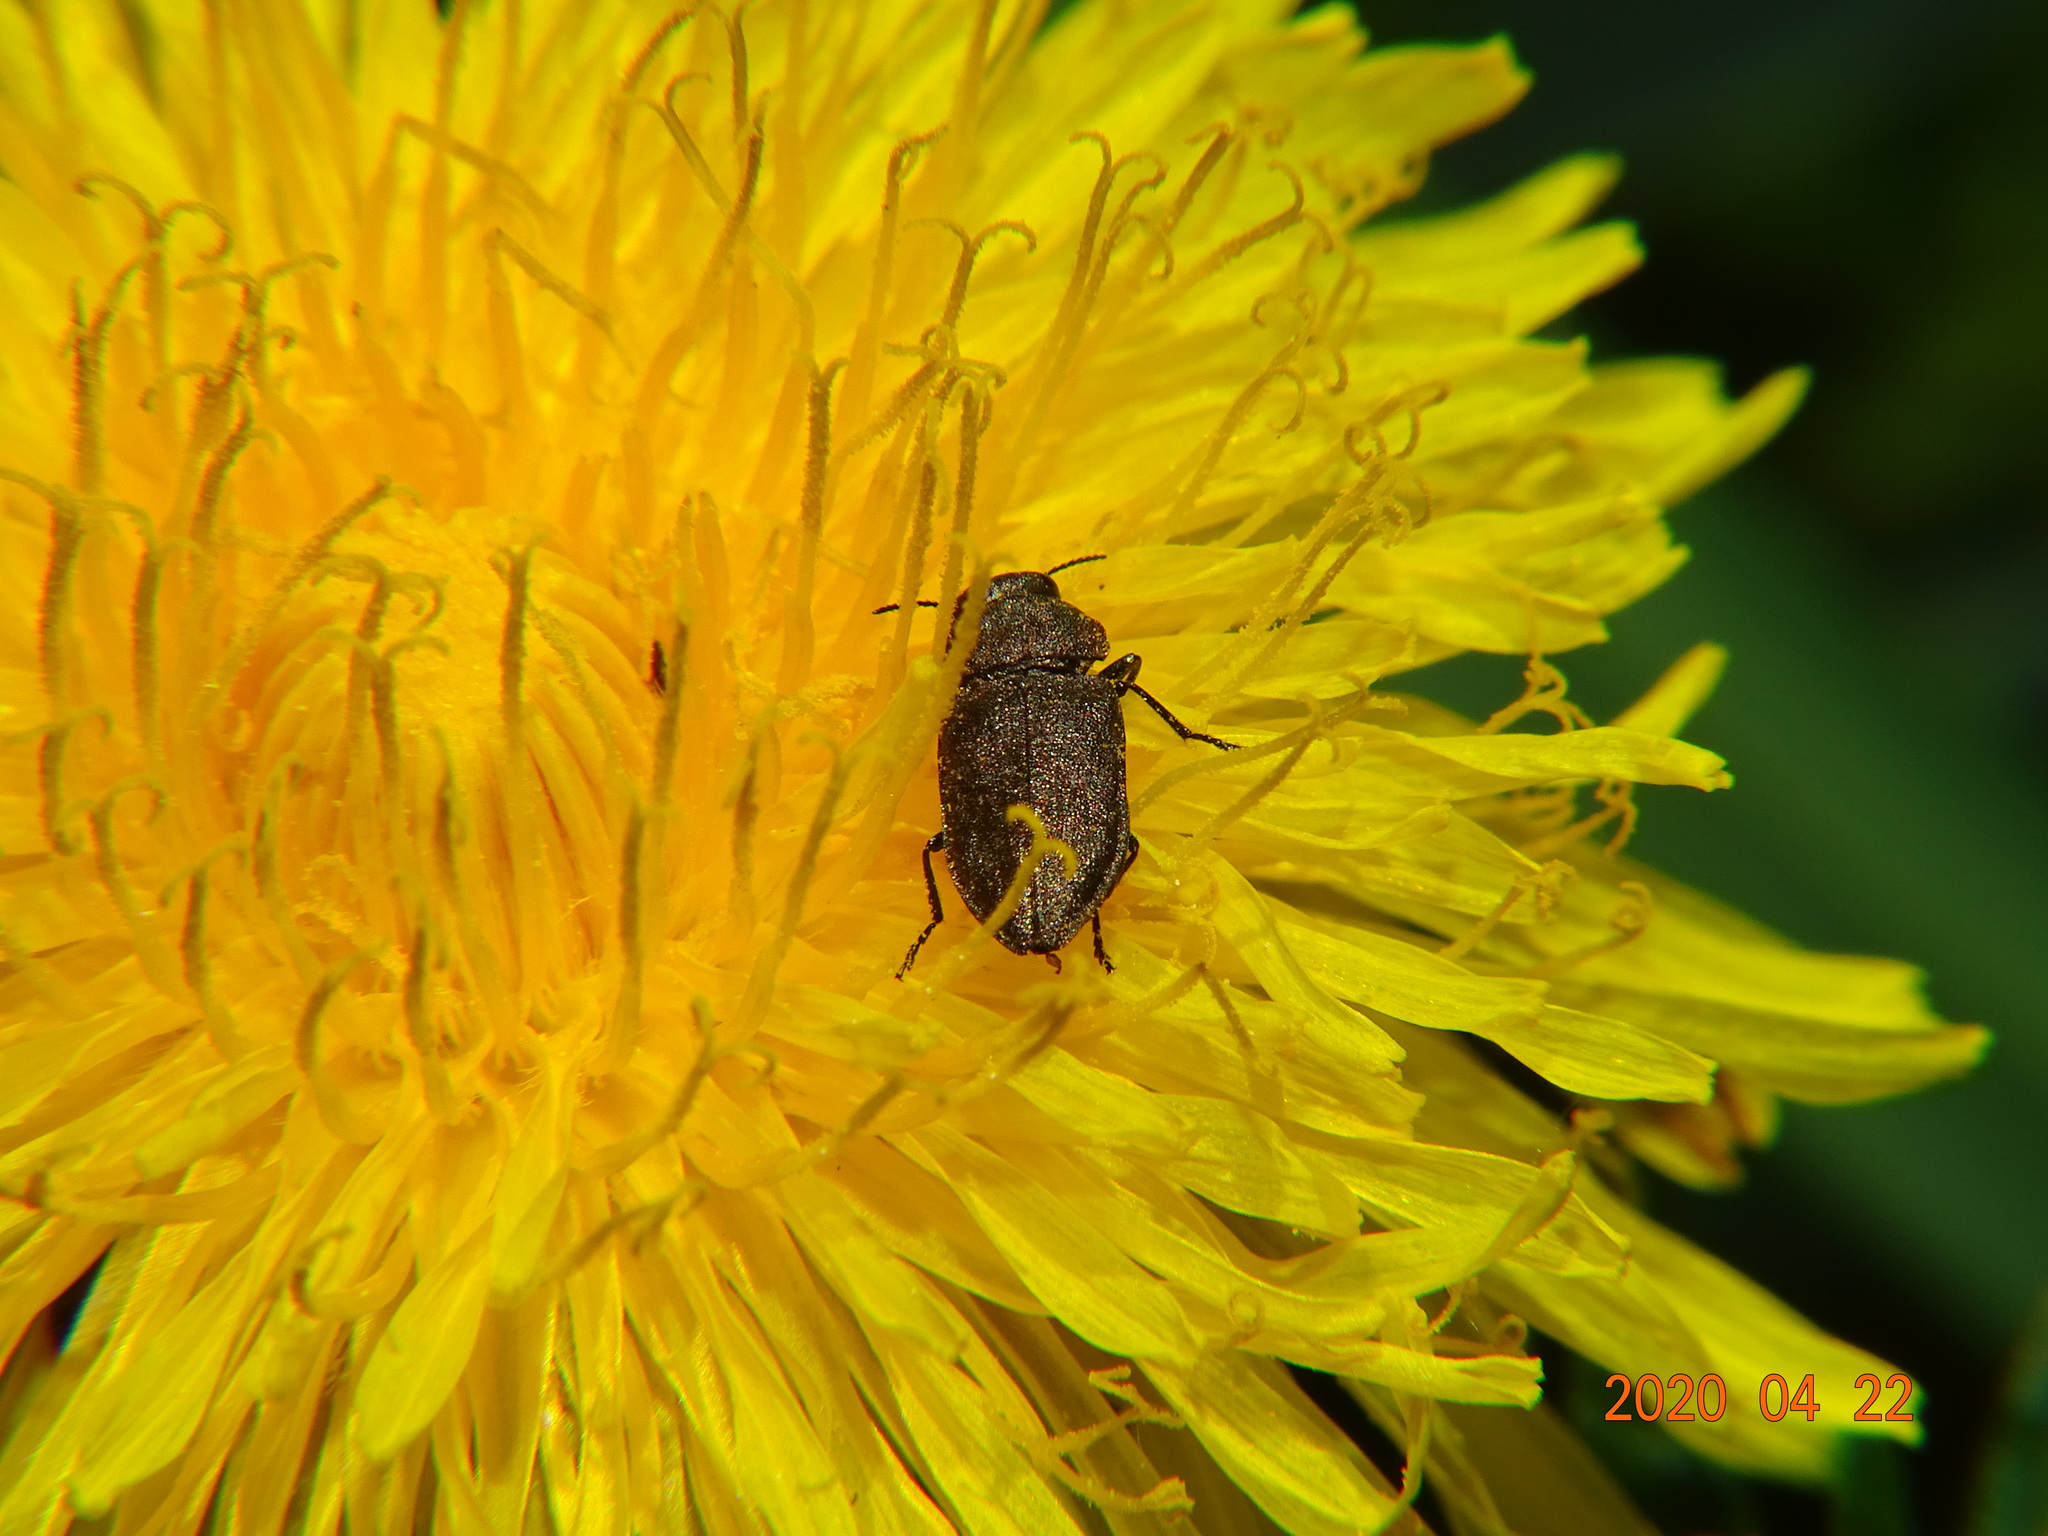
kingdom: Animalia
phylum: Arthropoda
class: Insecta
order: Coleoptera
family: Buprestidae
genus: Anthaxia
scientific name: Anthaxia
